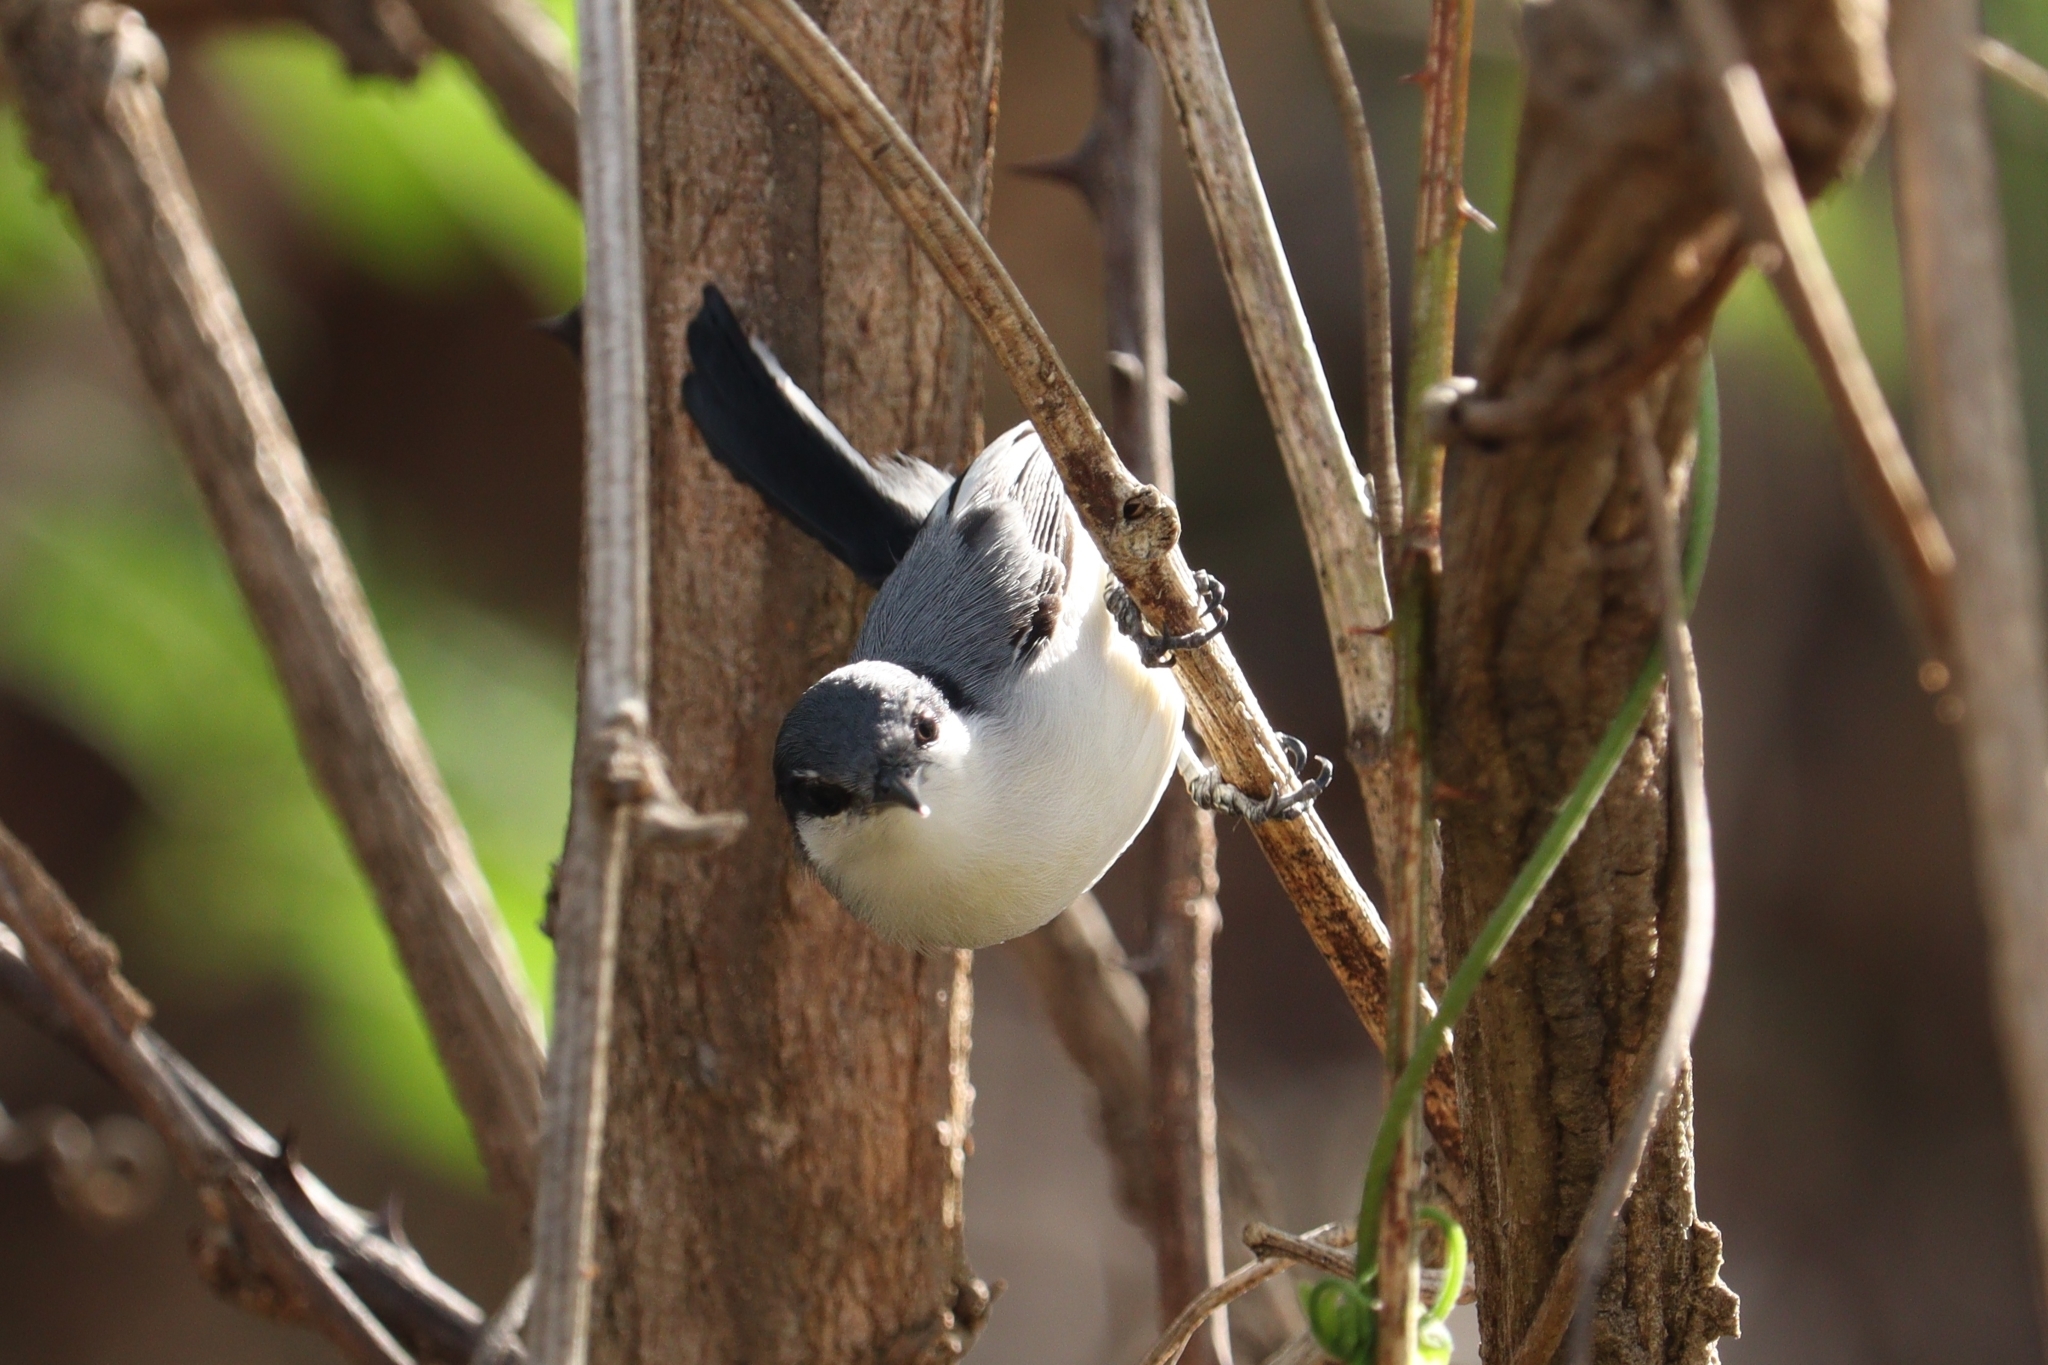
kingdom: Animalia
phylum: Chordata
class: Aves
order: Passeriformes
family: Polioptilidae
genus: Polioptila
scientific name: Polioptila dumicola
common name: Masked gnatcatcher
